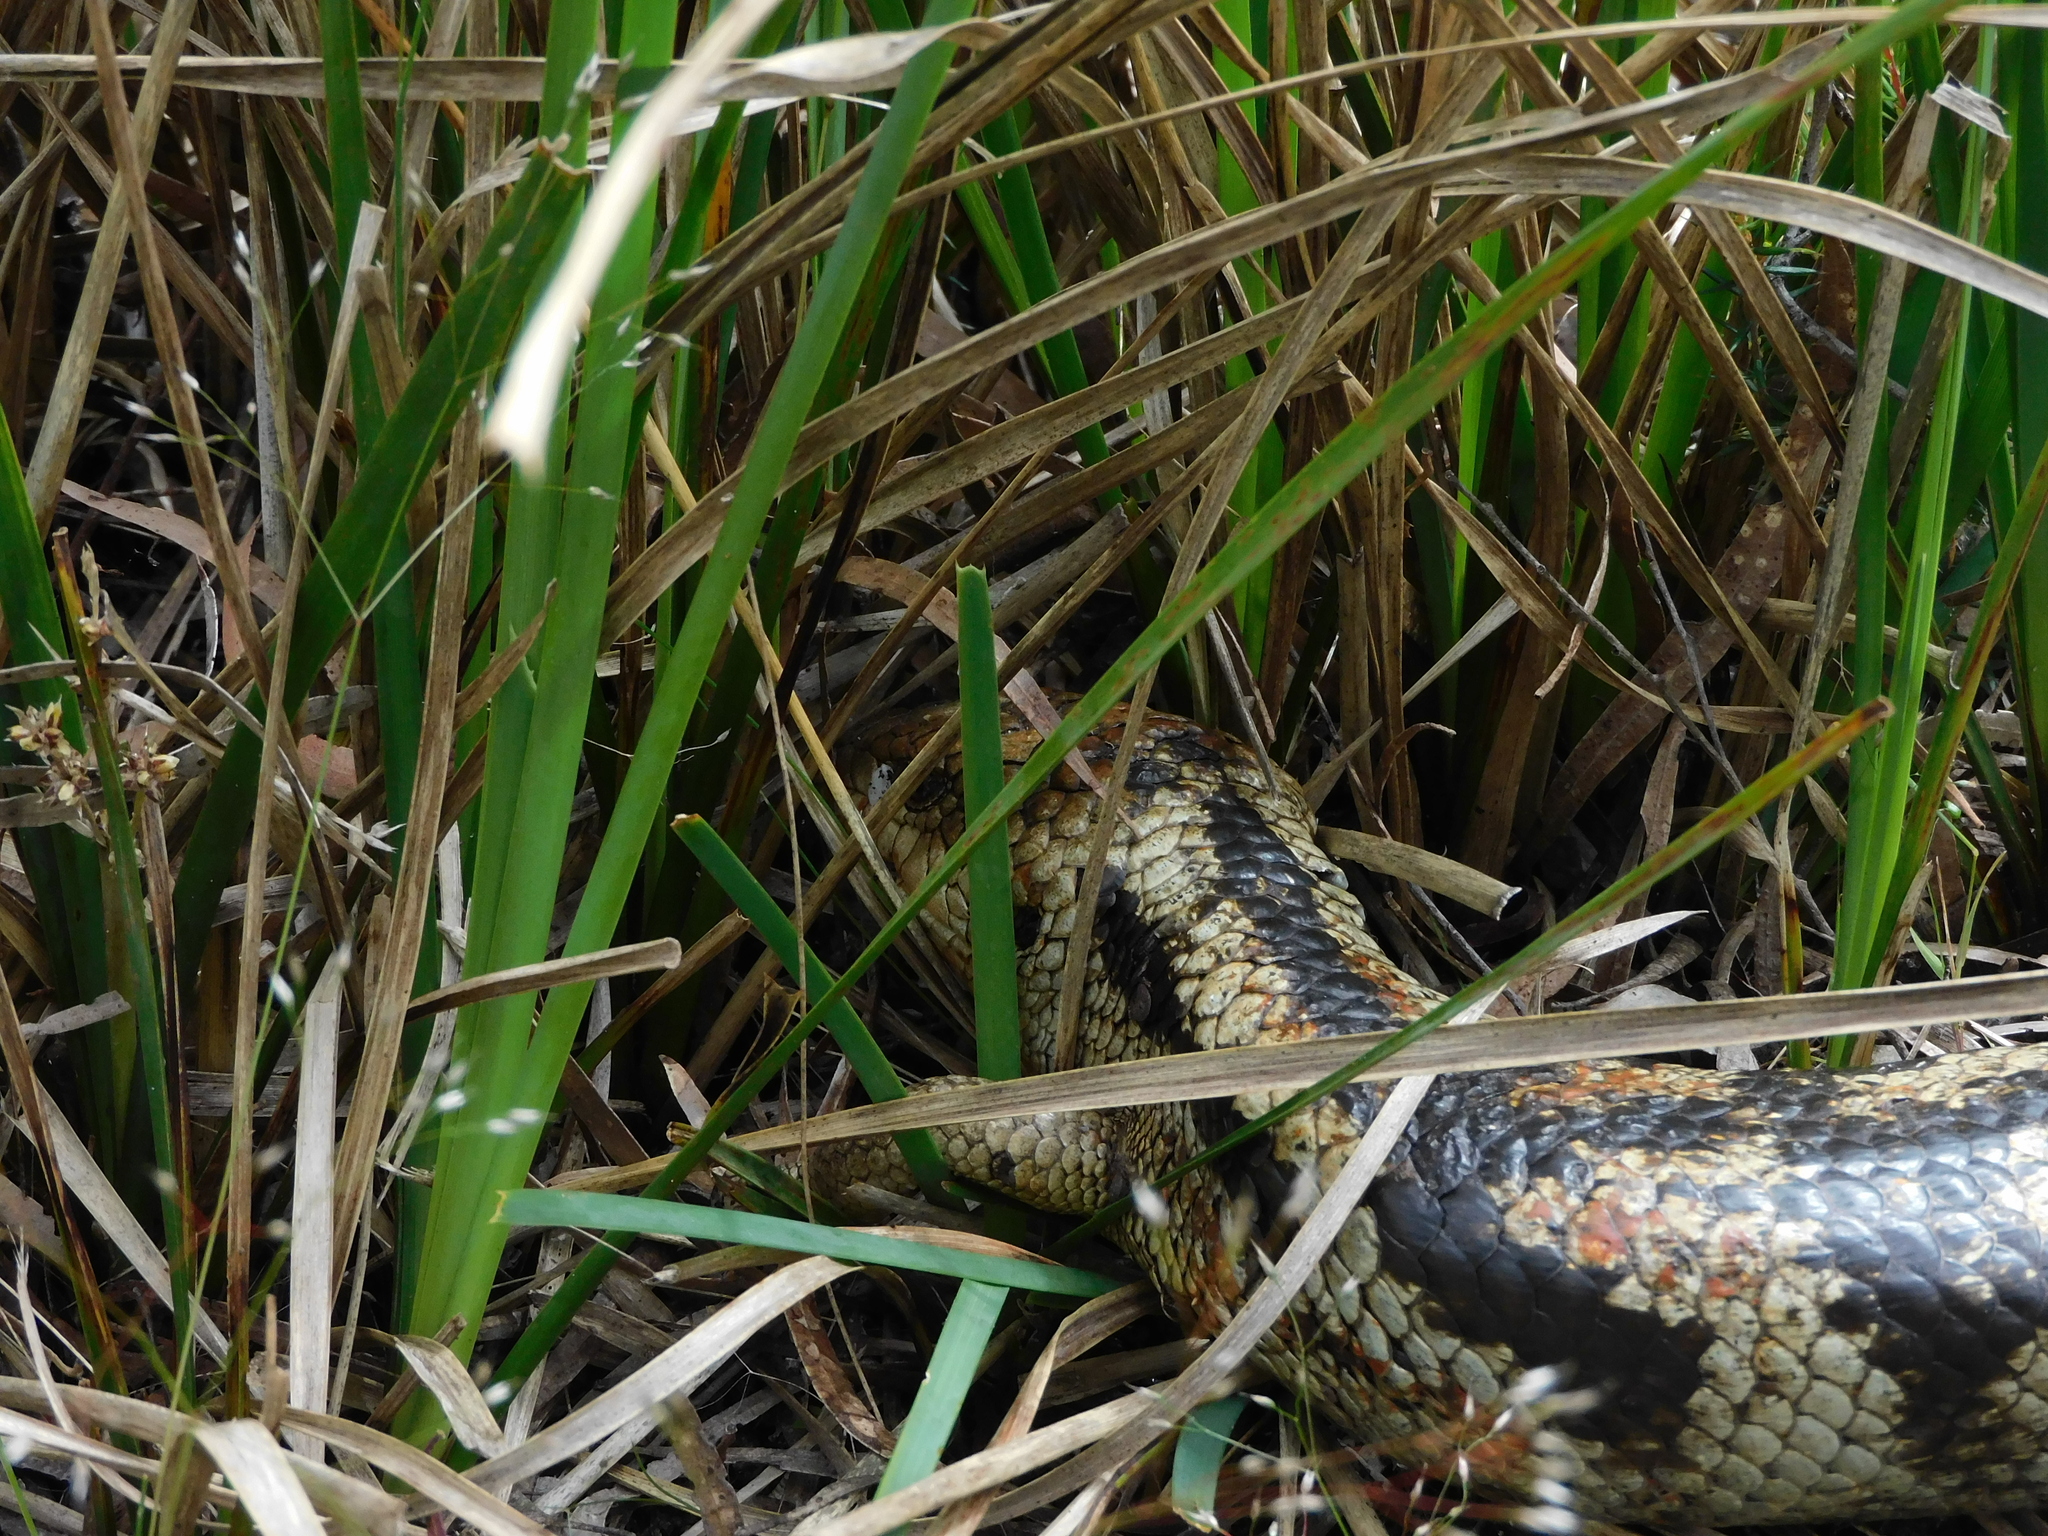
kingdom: Animalia
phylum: Chordata
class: Squamata
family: Scincidae
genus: Tiliqua
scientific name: Tiliqua nigrolutea
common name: Blotched blue-tongued lizard
